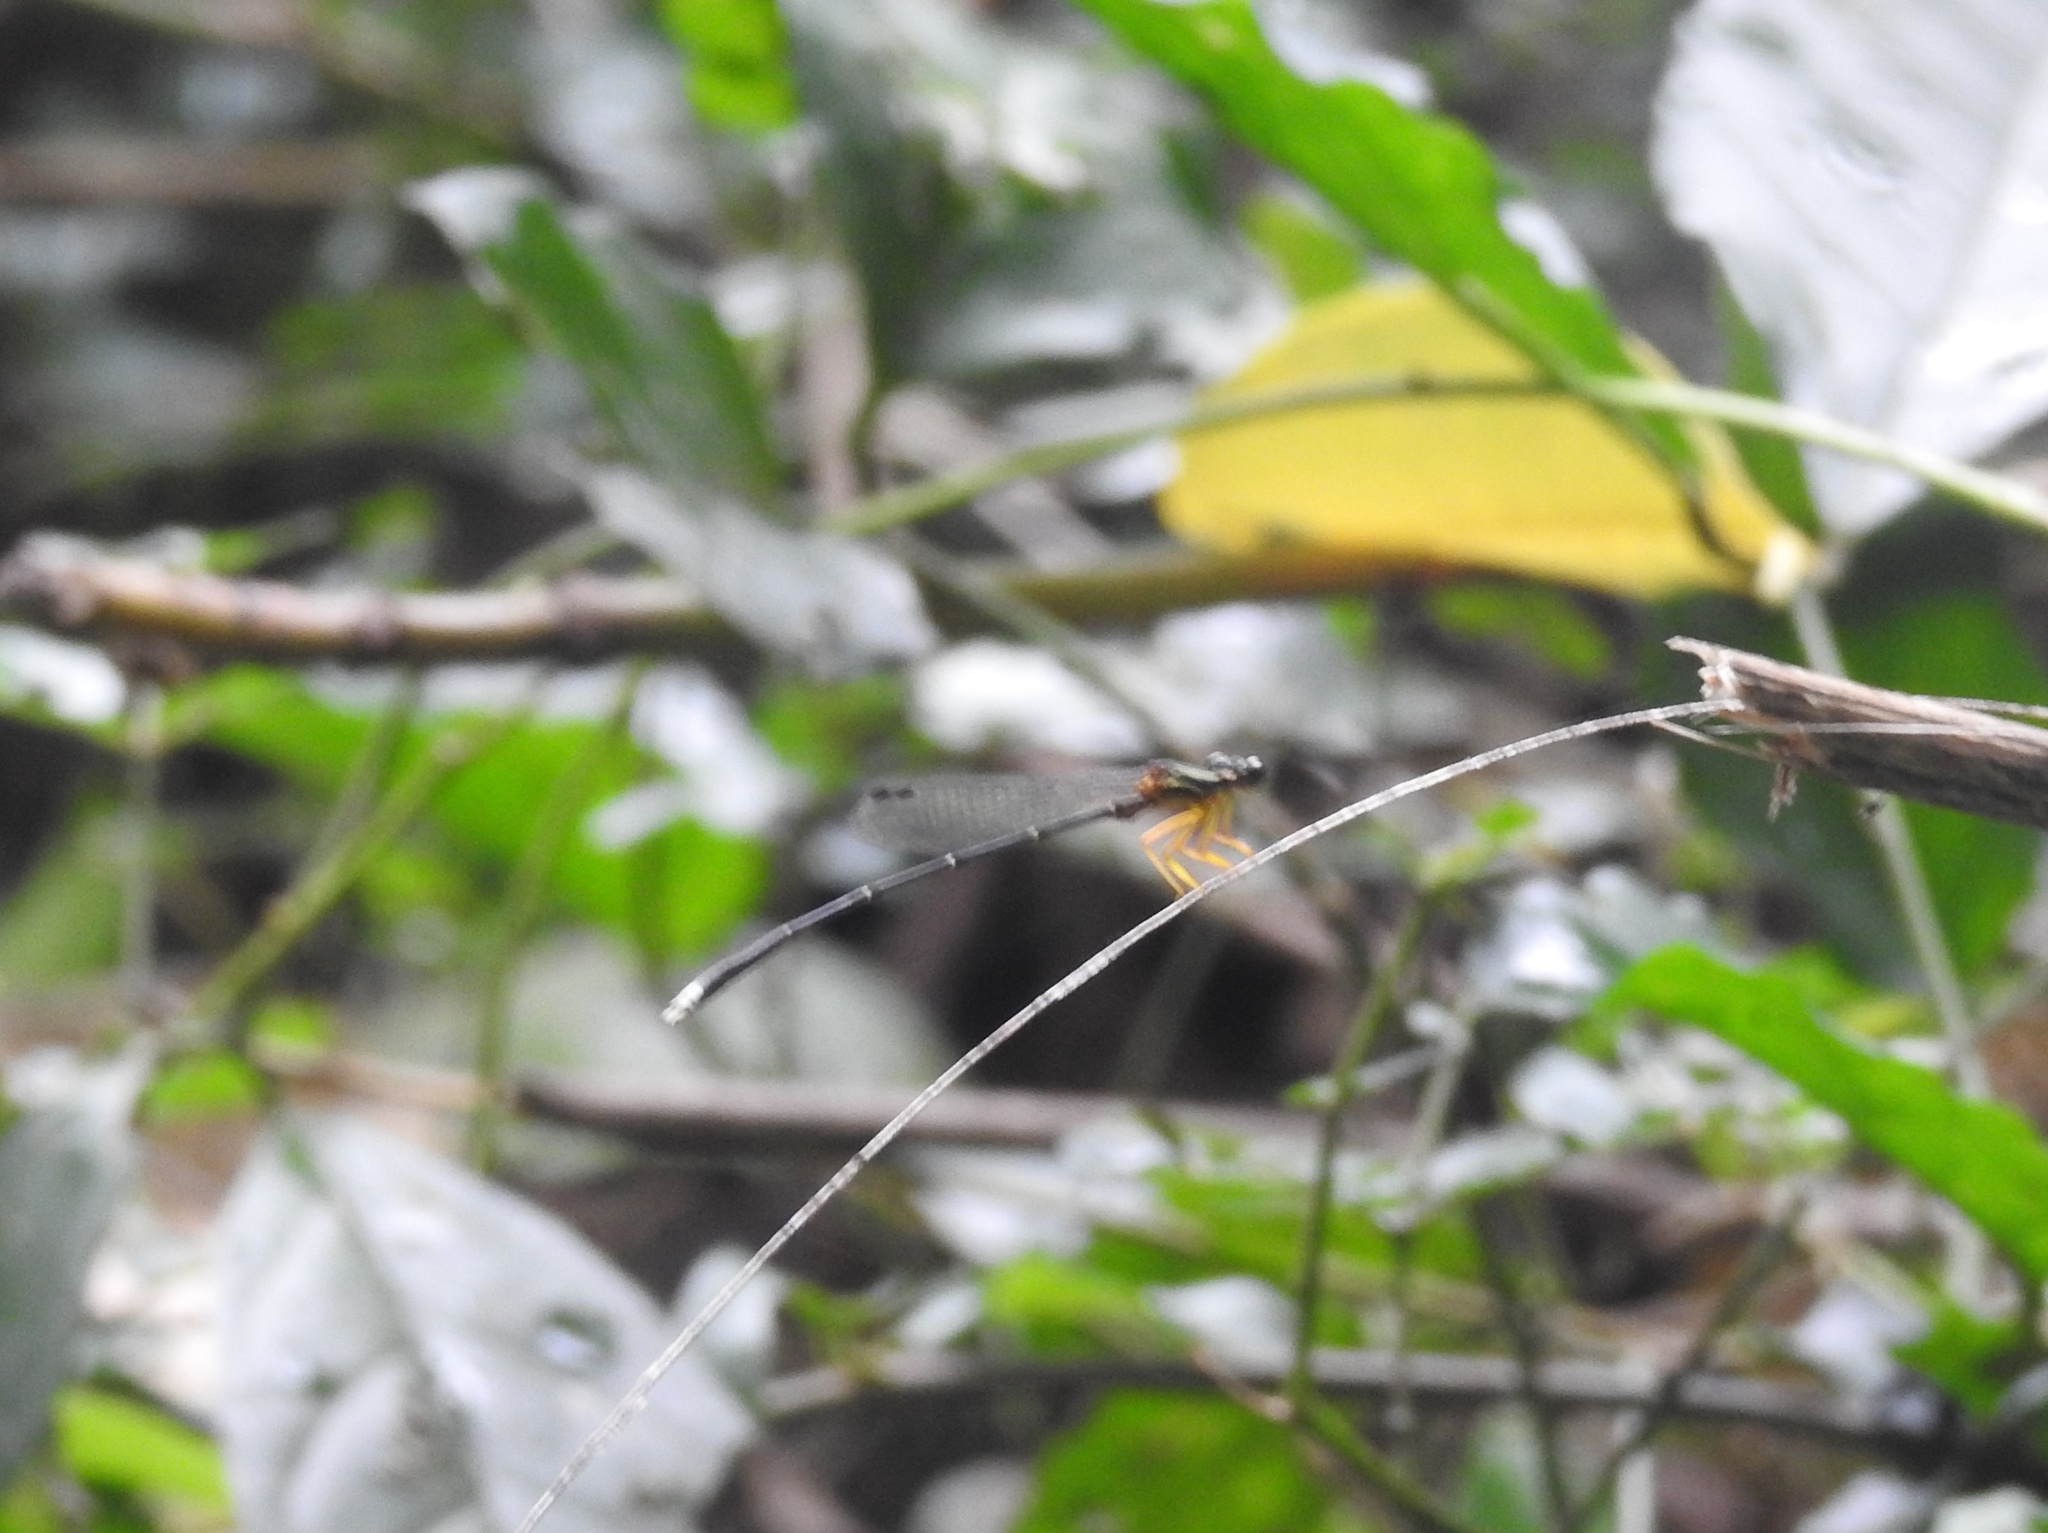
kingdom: Animalia
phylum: Arthropoda
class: Insecta
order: Odonata
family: Platycnemididae
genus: Copera
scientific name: Copera marginipes
